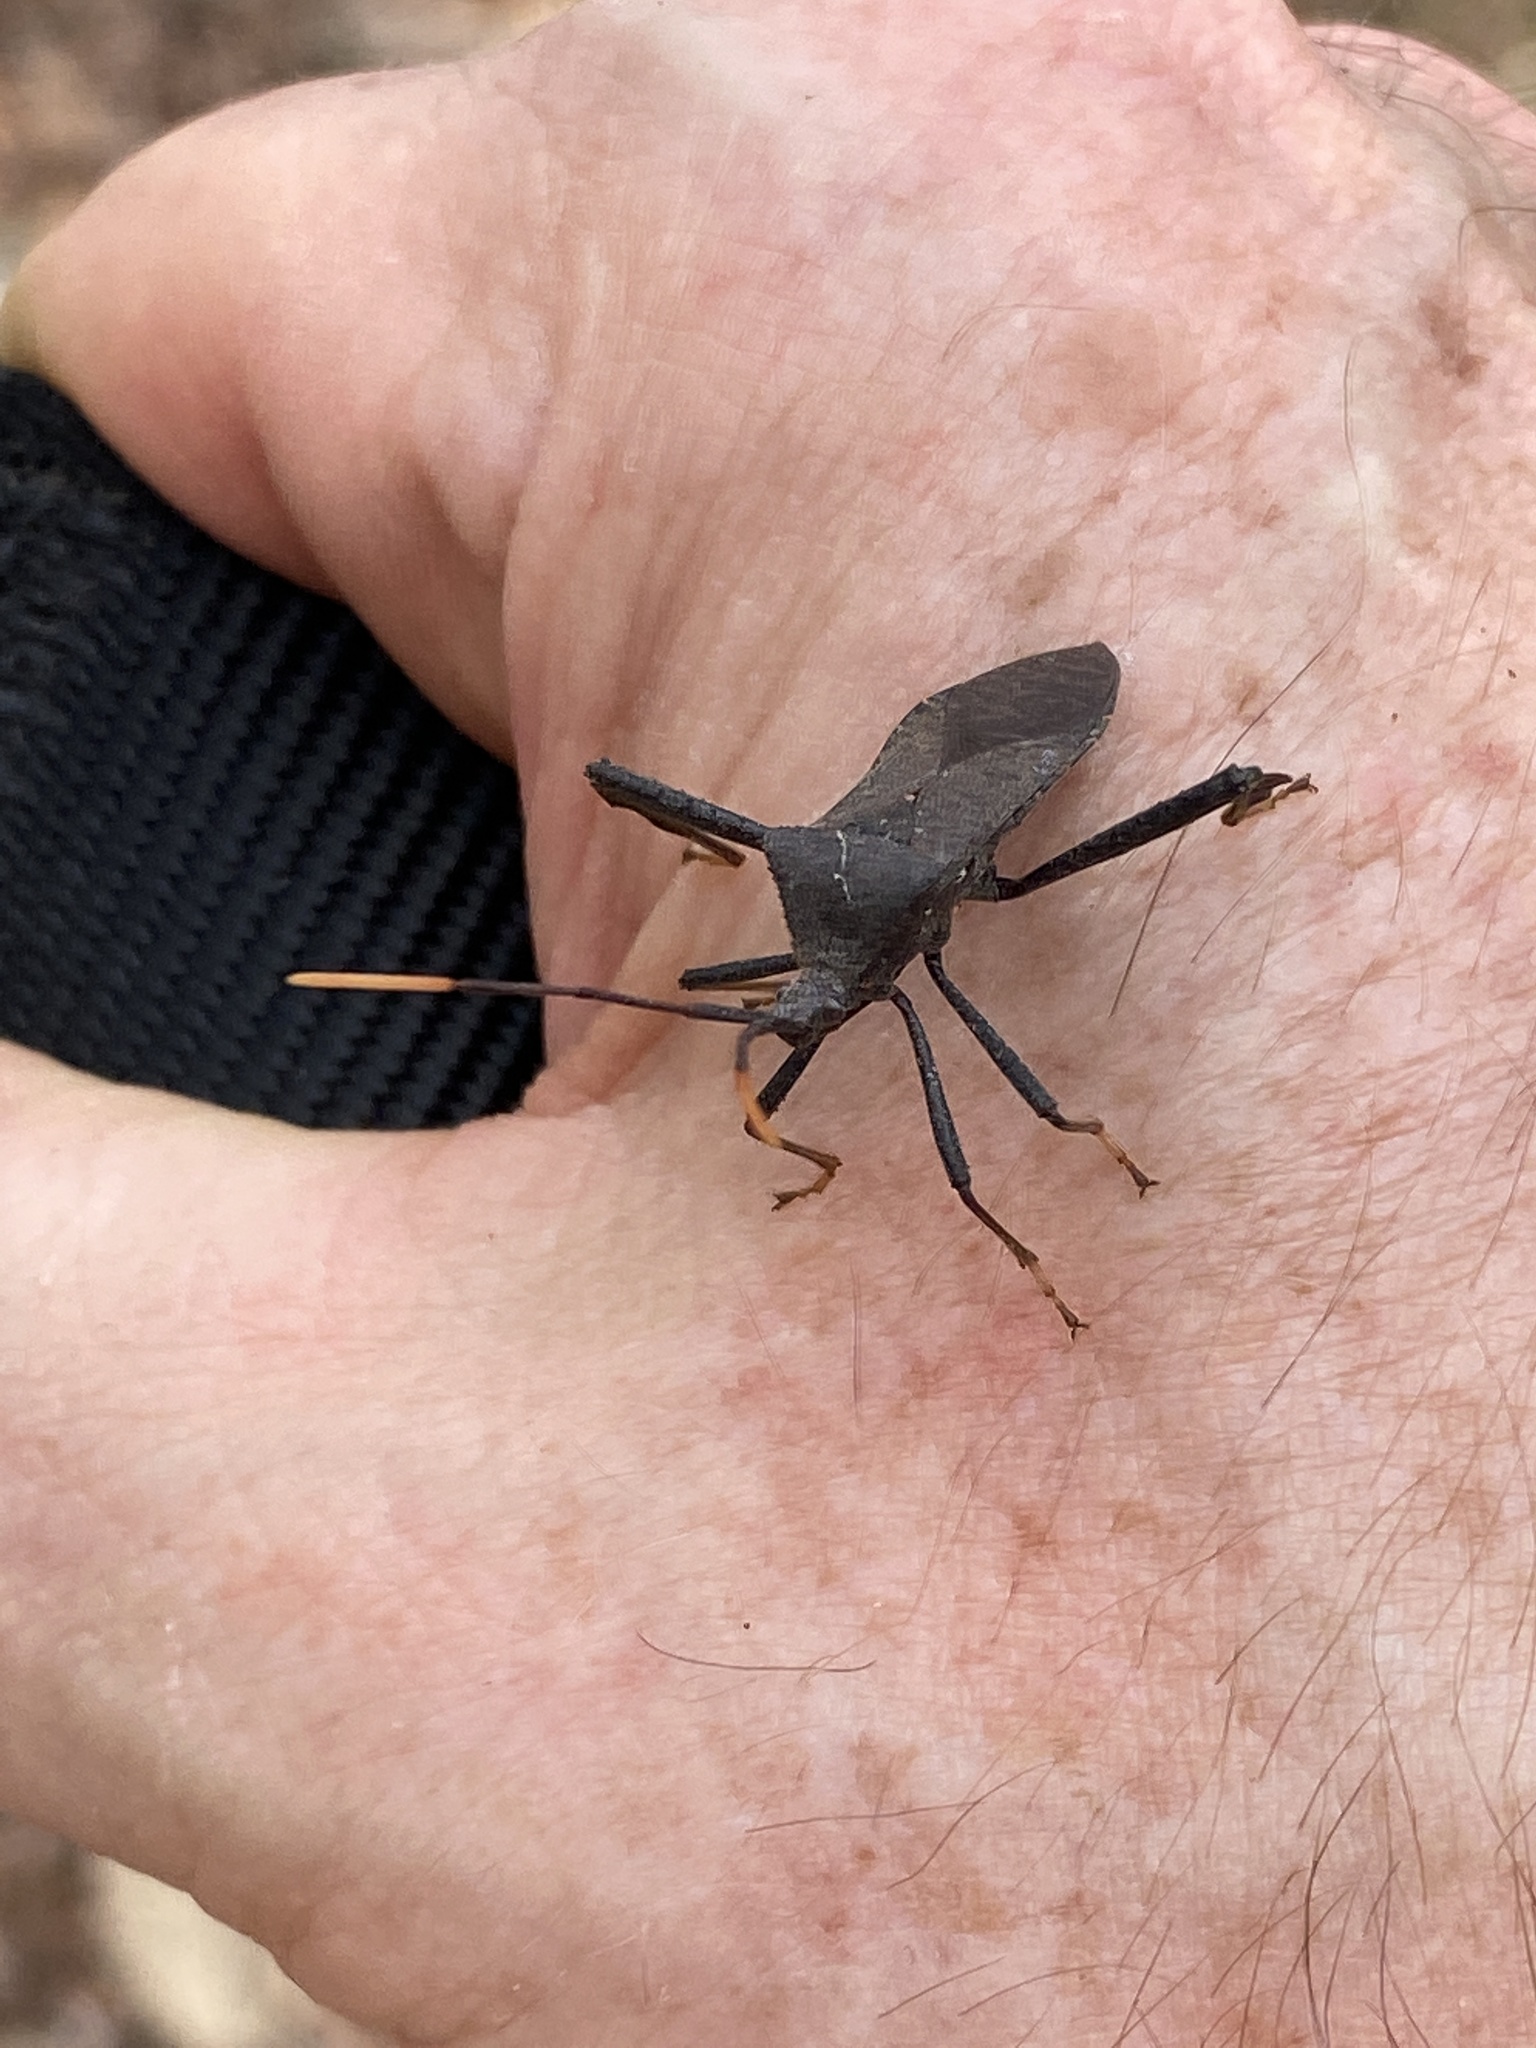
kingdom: Animalia
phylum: Arthropoda
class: Insecta
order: Hemiptera
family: Coreidae
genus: Acanthocephala
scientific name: Acanthocephala terminalis
